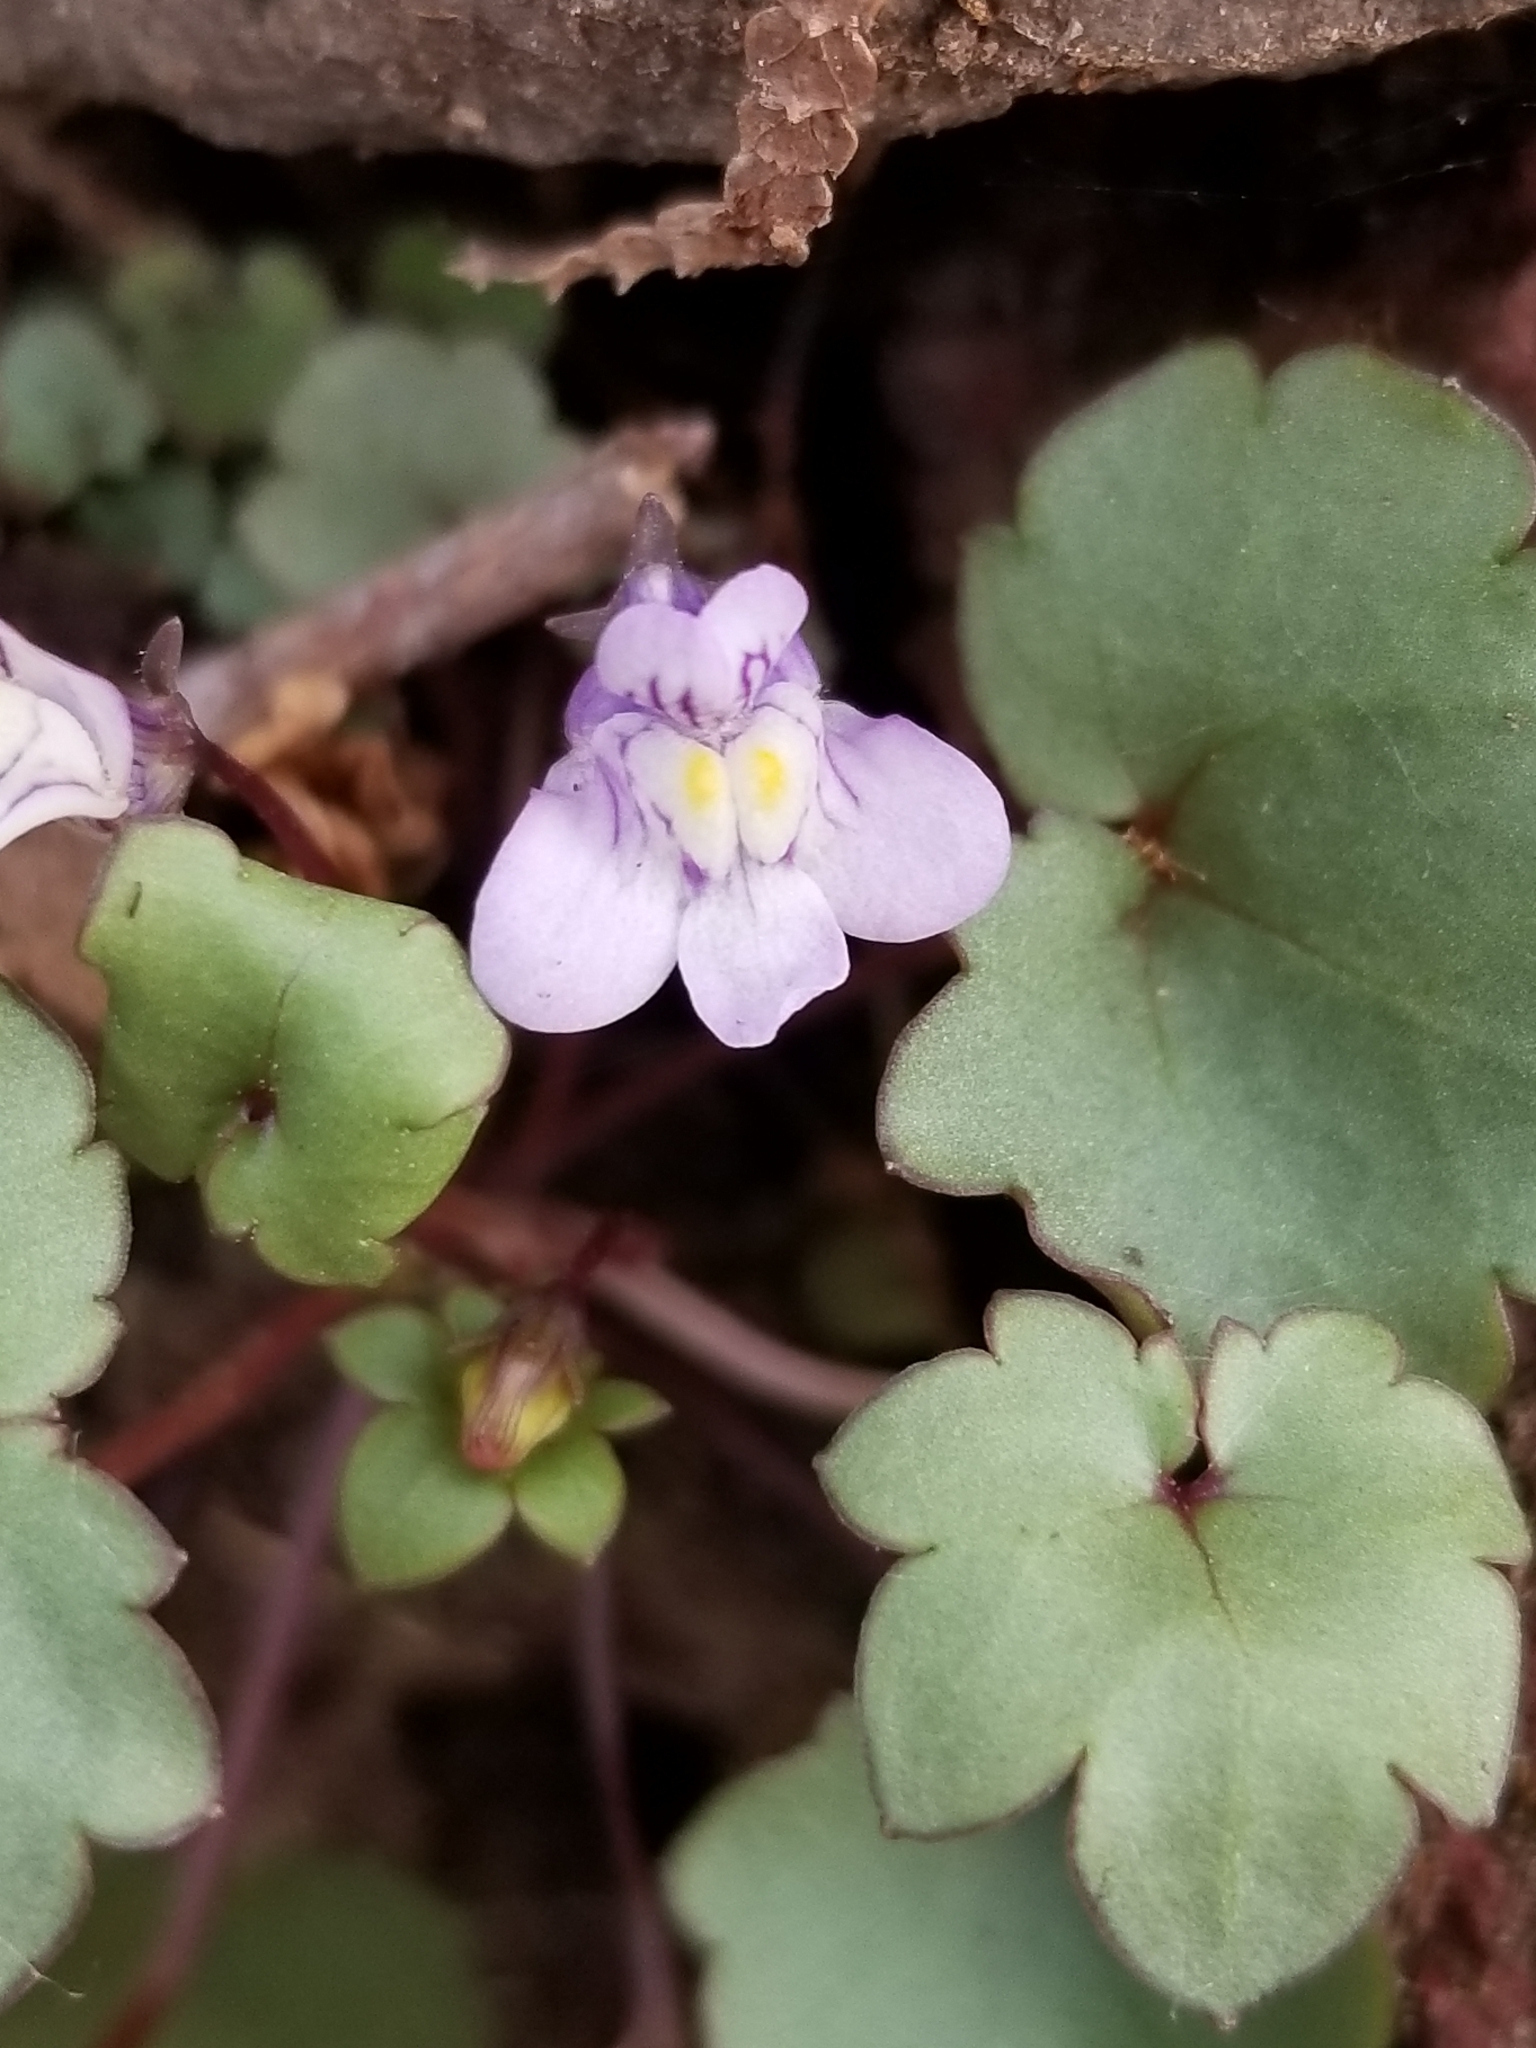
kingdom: Plantae
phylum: Tracheophyta
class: Magnoliopsida
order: Lamiales
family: Plantaginaceae
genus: Cymbalaria
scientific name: Cymbalaria muralis
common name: Ivy-leaved toadflax
